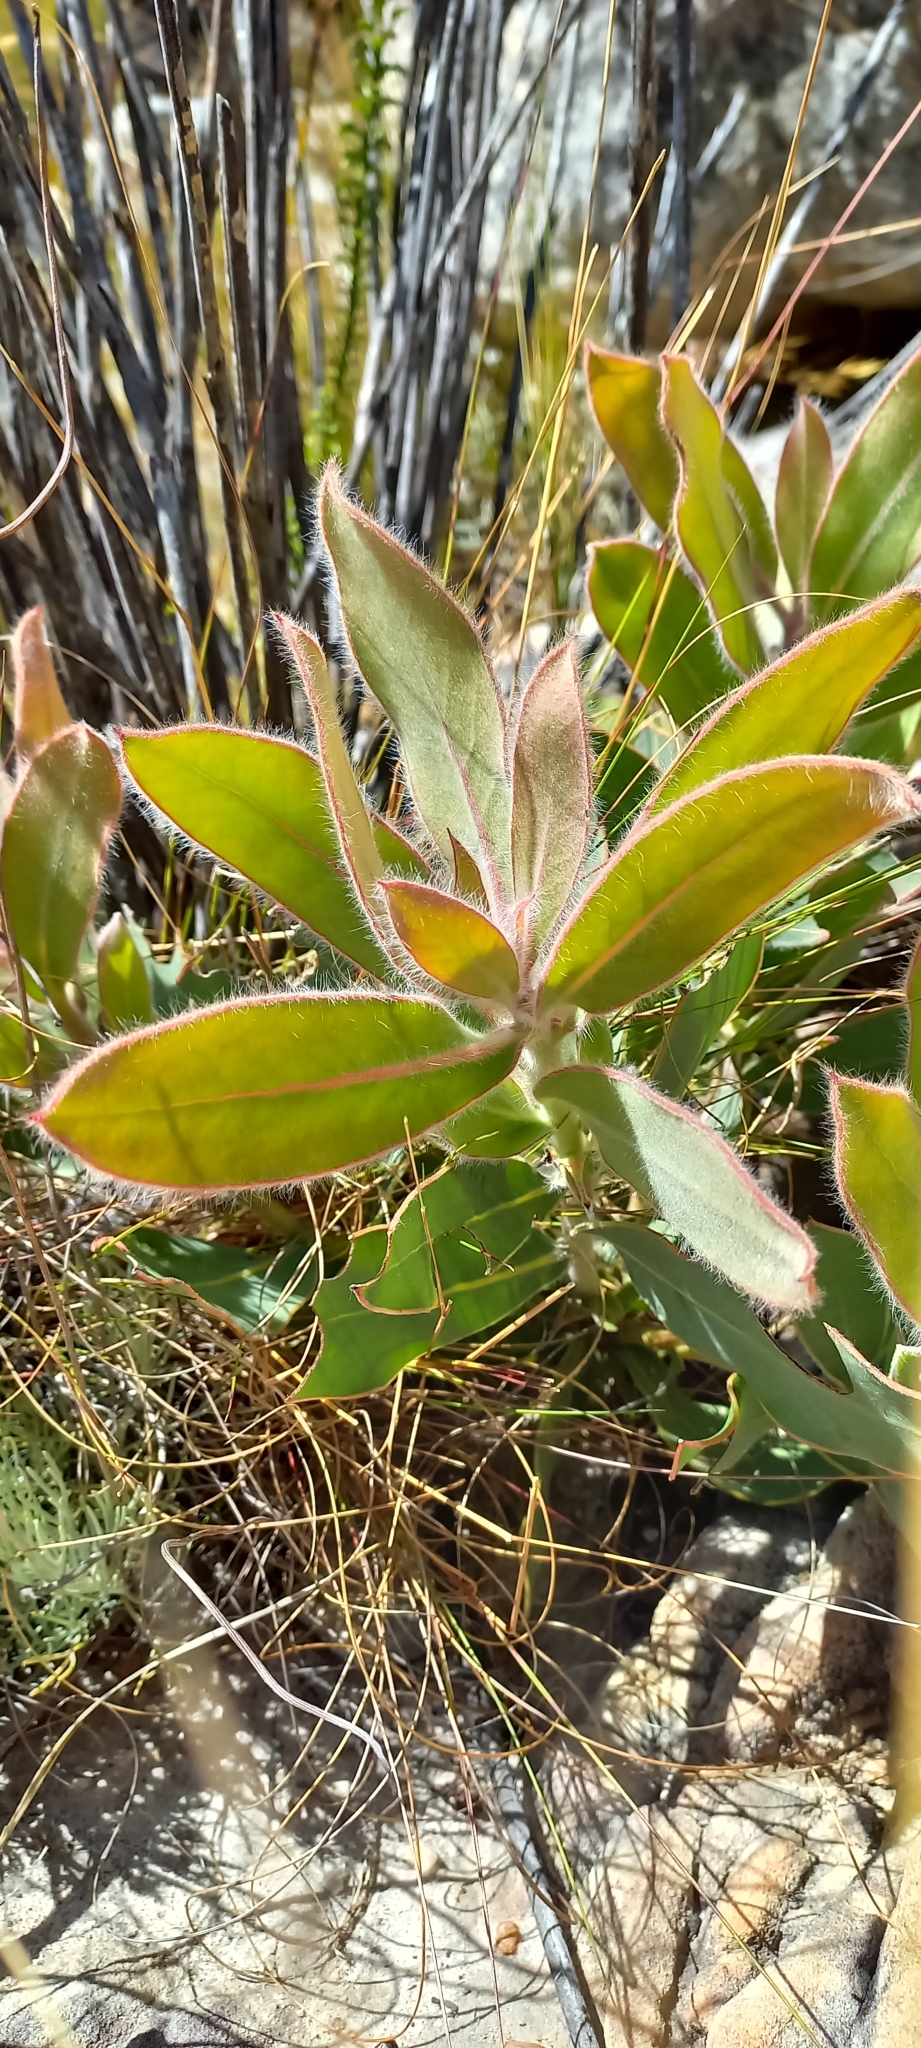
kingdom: Plantae
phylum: Tracheophyta
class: Magnoliopsida
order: Proteales
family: Proteaceae
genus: Protea
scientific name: Protea laurifolia
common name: Grey-leaf sugarbsh
